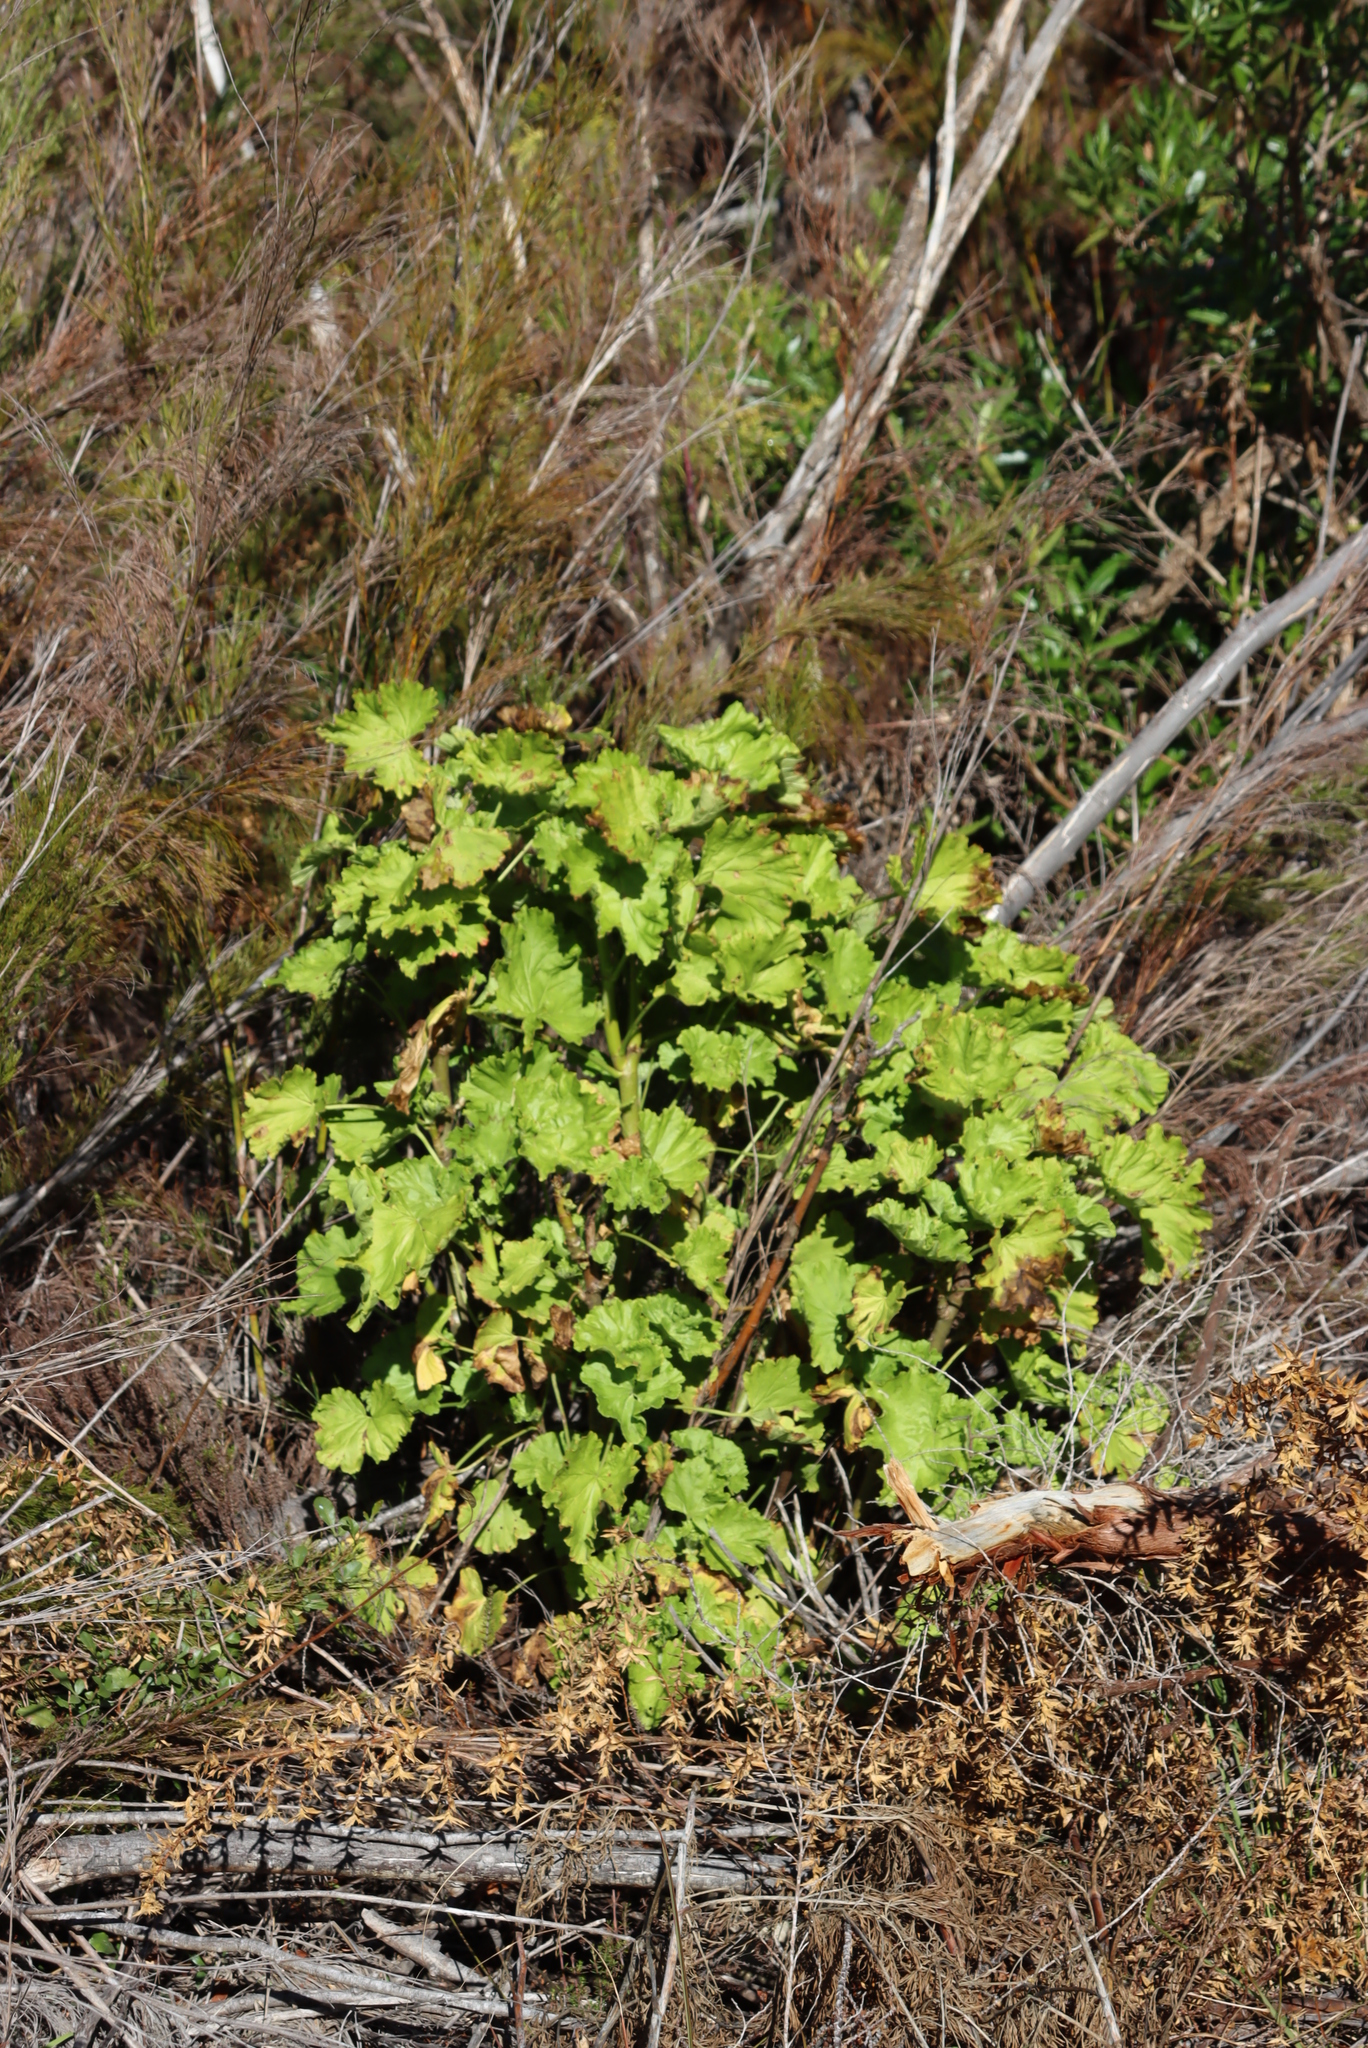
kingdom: Plantae
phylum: Tracheophyta
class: Magnoliopsida
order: Geraniales
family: Geraniaceae
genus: Pelargonium
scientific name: Pelargonium zonale
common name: Horseshoe geranium
